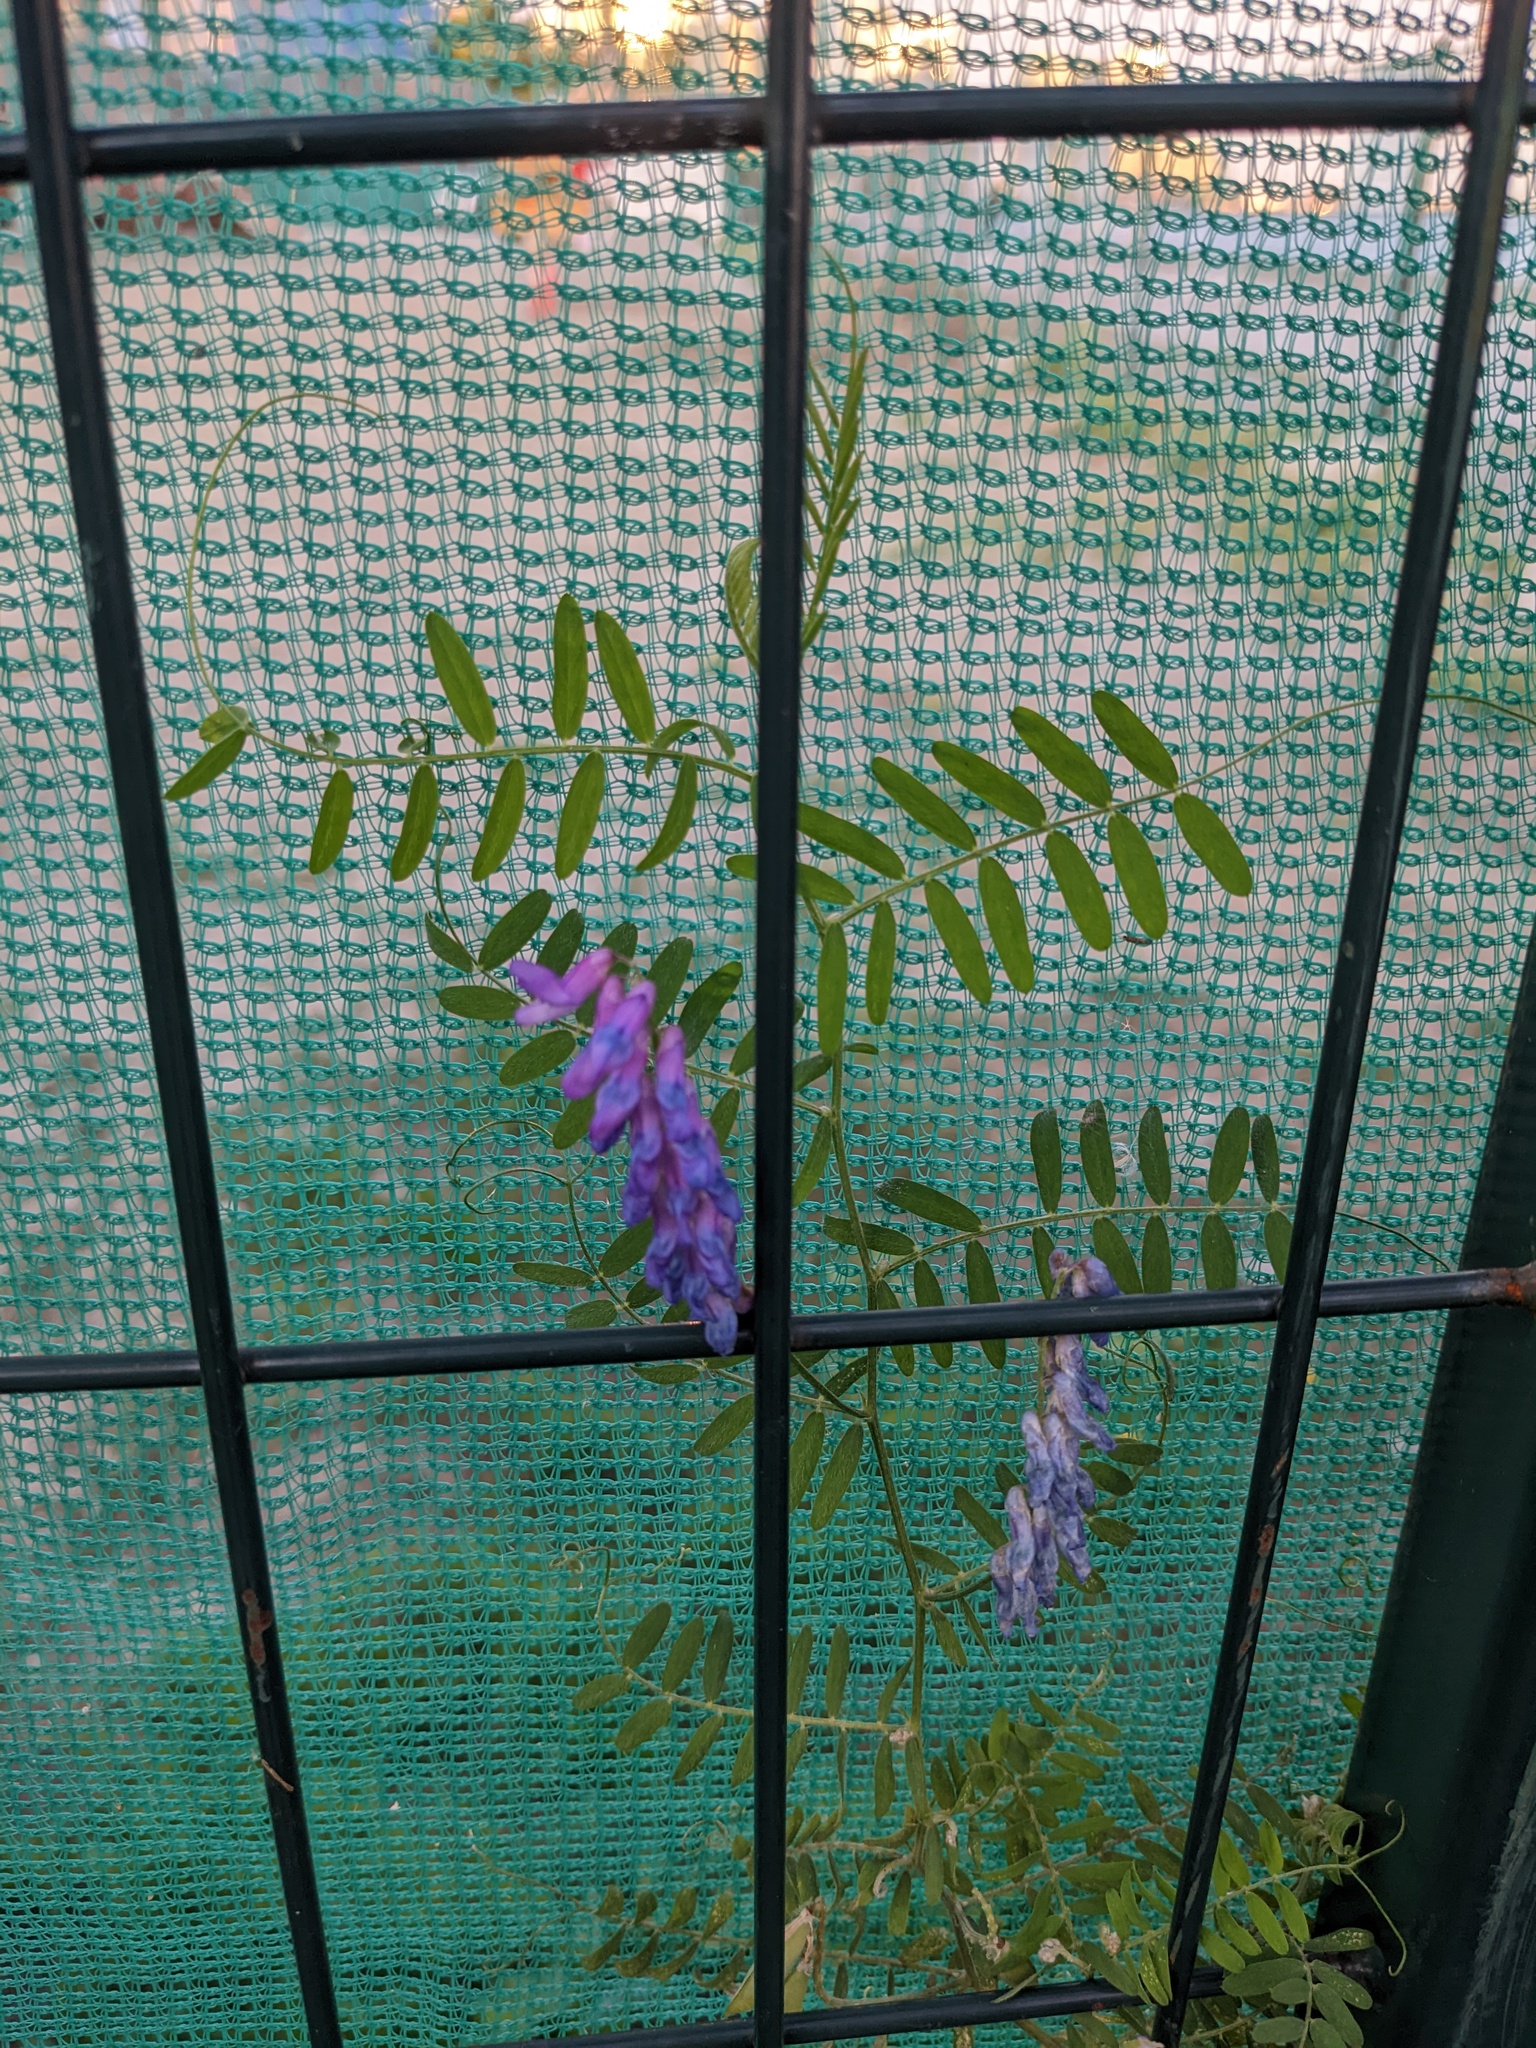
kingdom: Plantae
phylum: Tracheophyta
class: Magnoliopsida
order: Fabales
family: Fabaceae
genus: Vicia
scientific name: Vicia cracca
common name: Bird vetch
